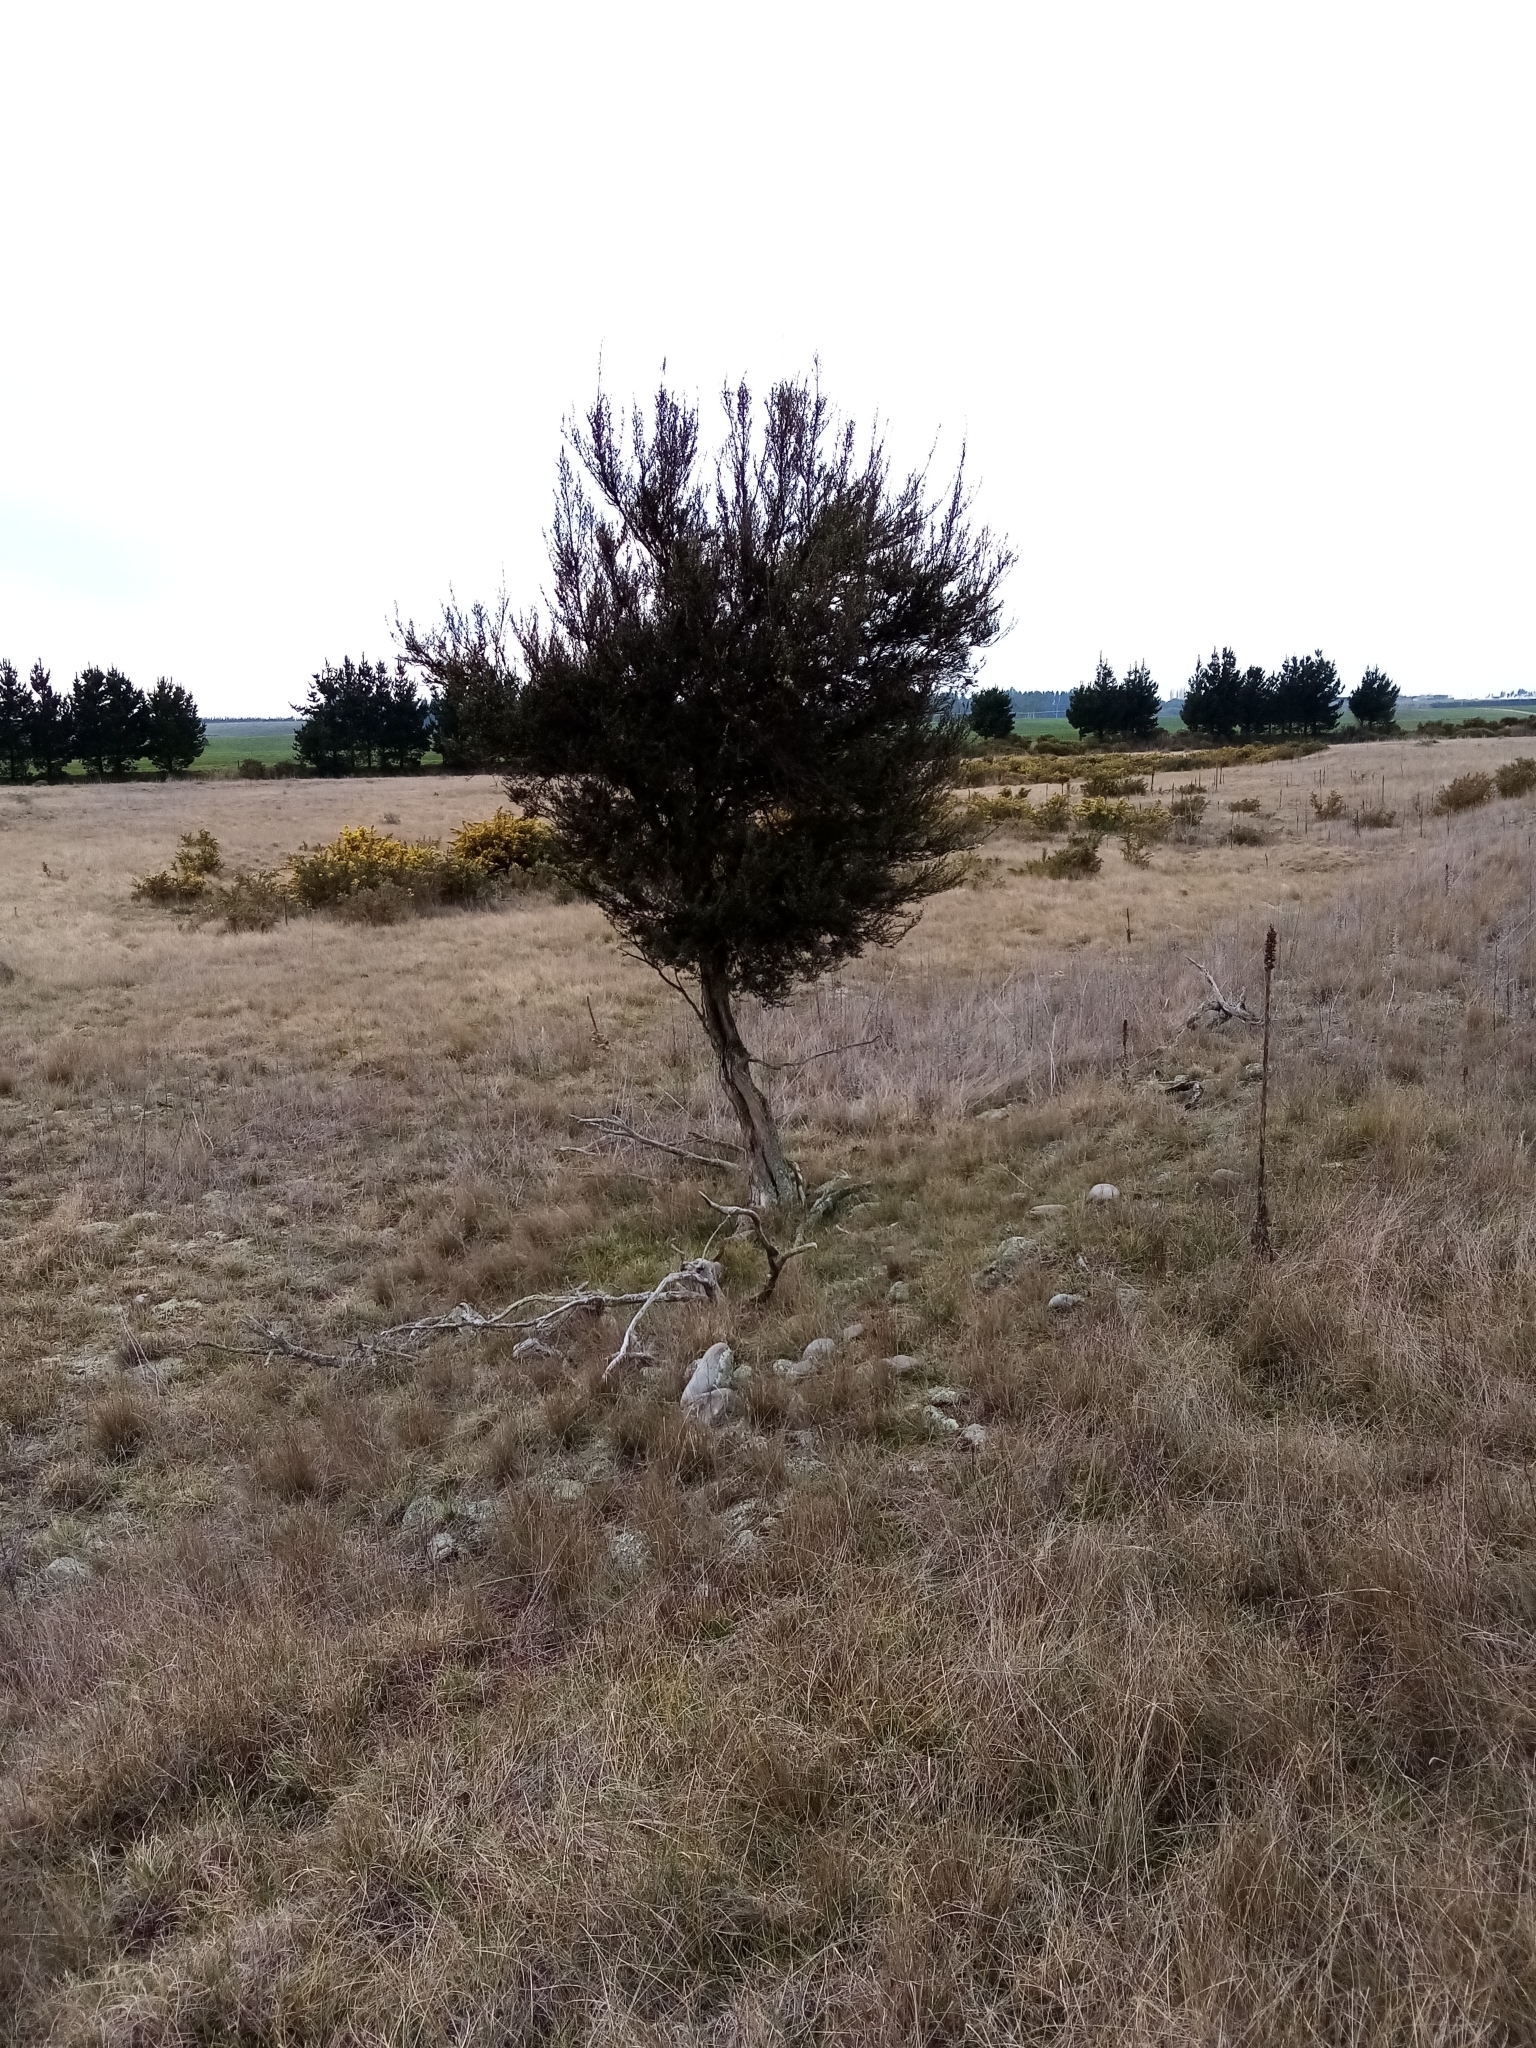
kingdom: Plantae
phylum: Tracheophyta
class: Magnoliopsida
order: Myrtales
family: Myrtaceae
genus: Kunzea
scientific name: Kunzea robusta
